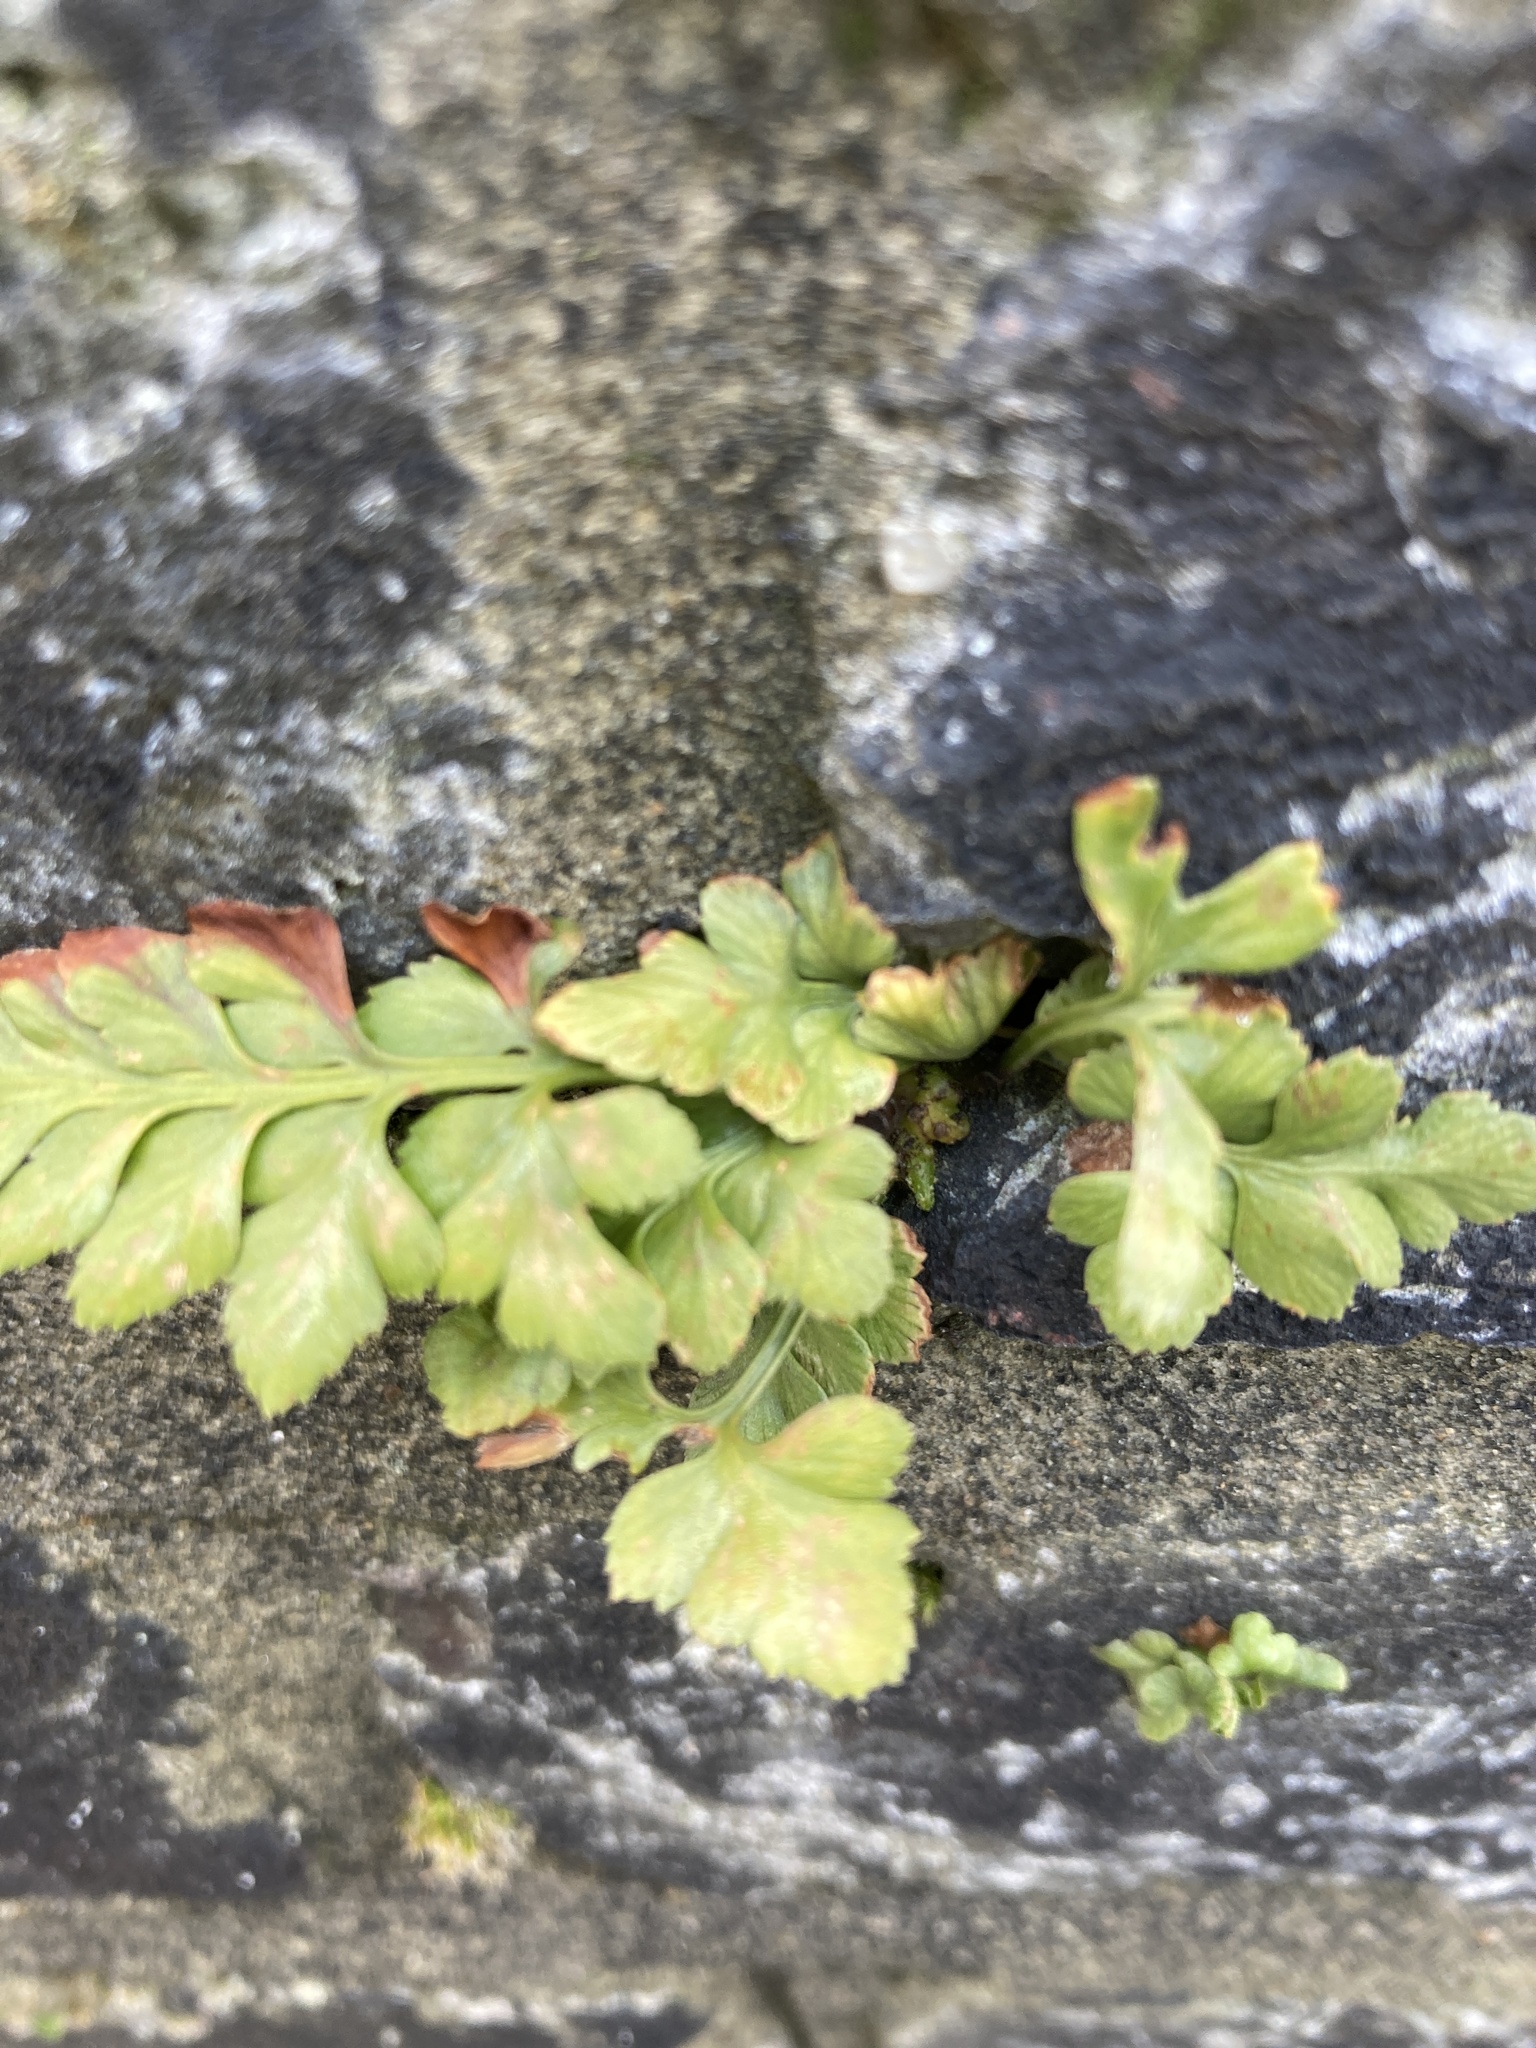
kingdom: Plantae
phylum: Tracheophyta
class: Polypodiopsida
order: Polypodiales
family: Aspleniaceae
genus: Asplenium
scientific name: Asplenium adiantum-nigrum
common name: Black spleenwort
